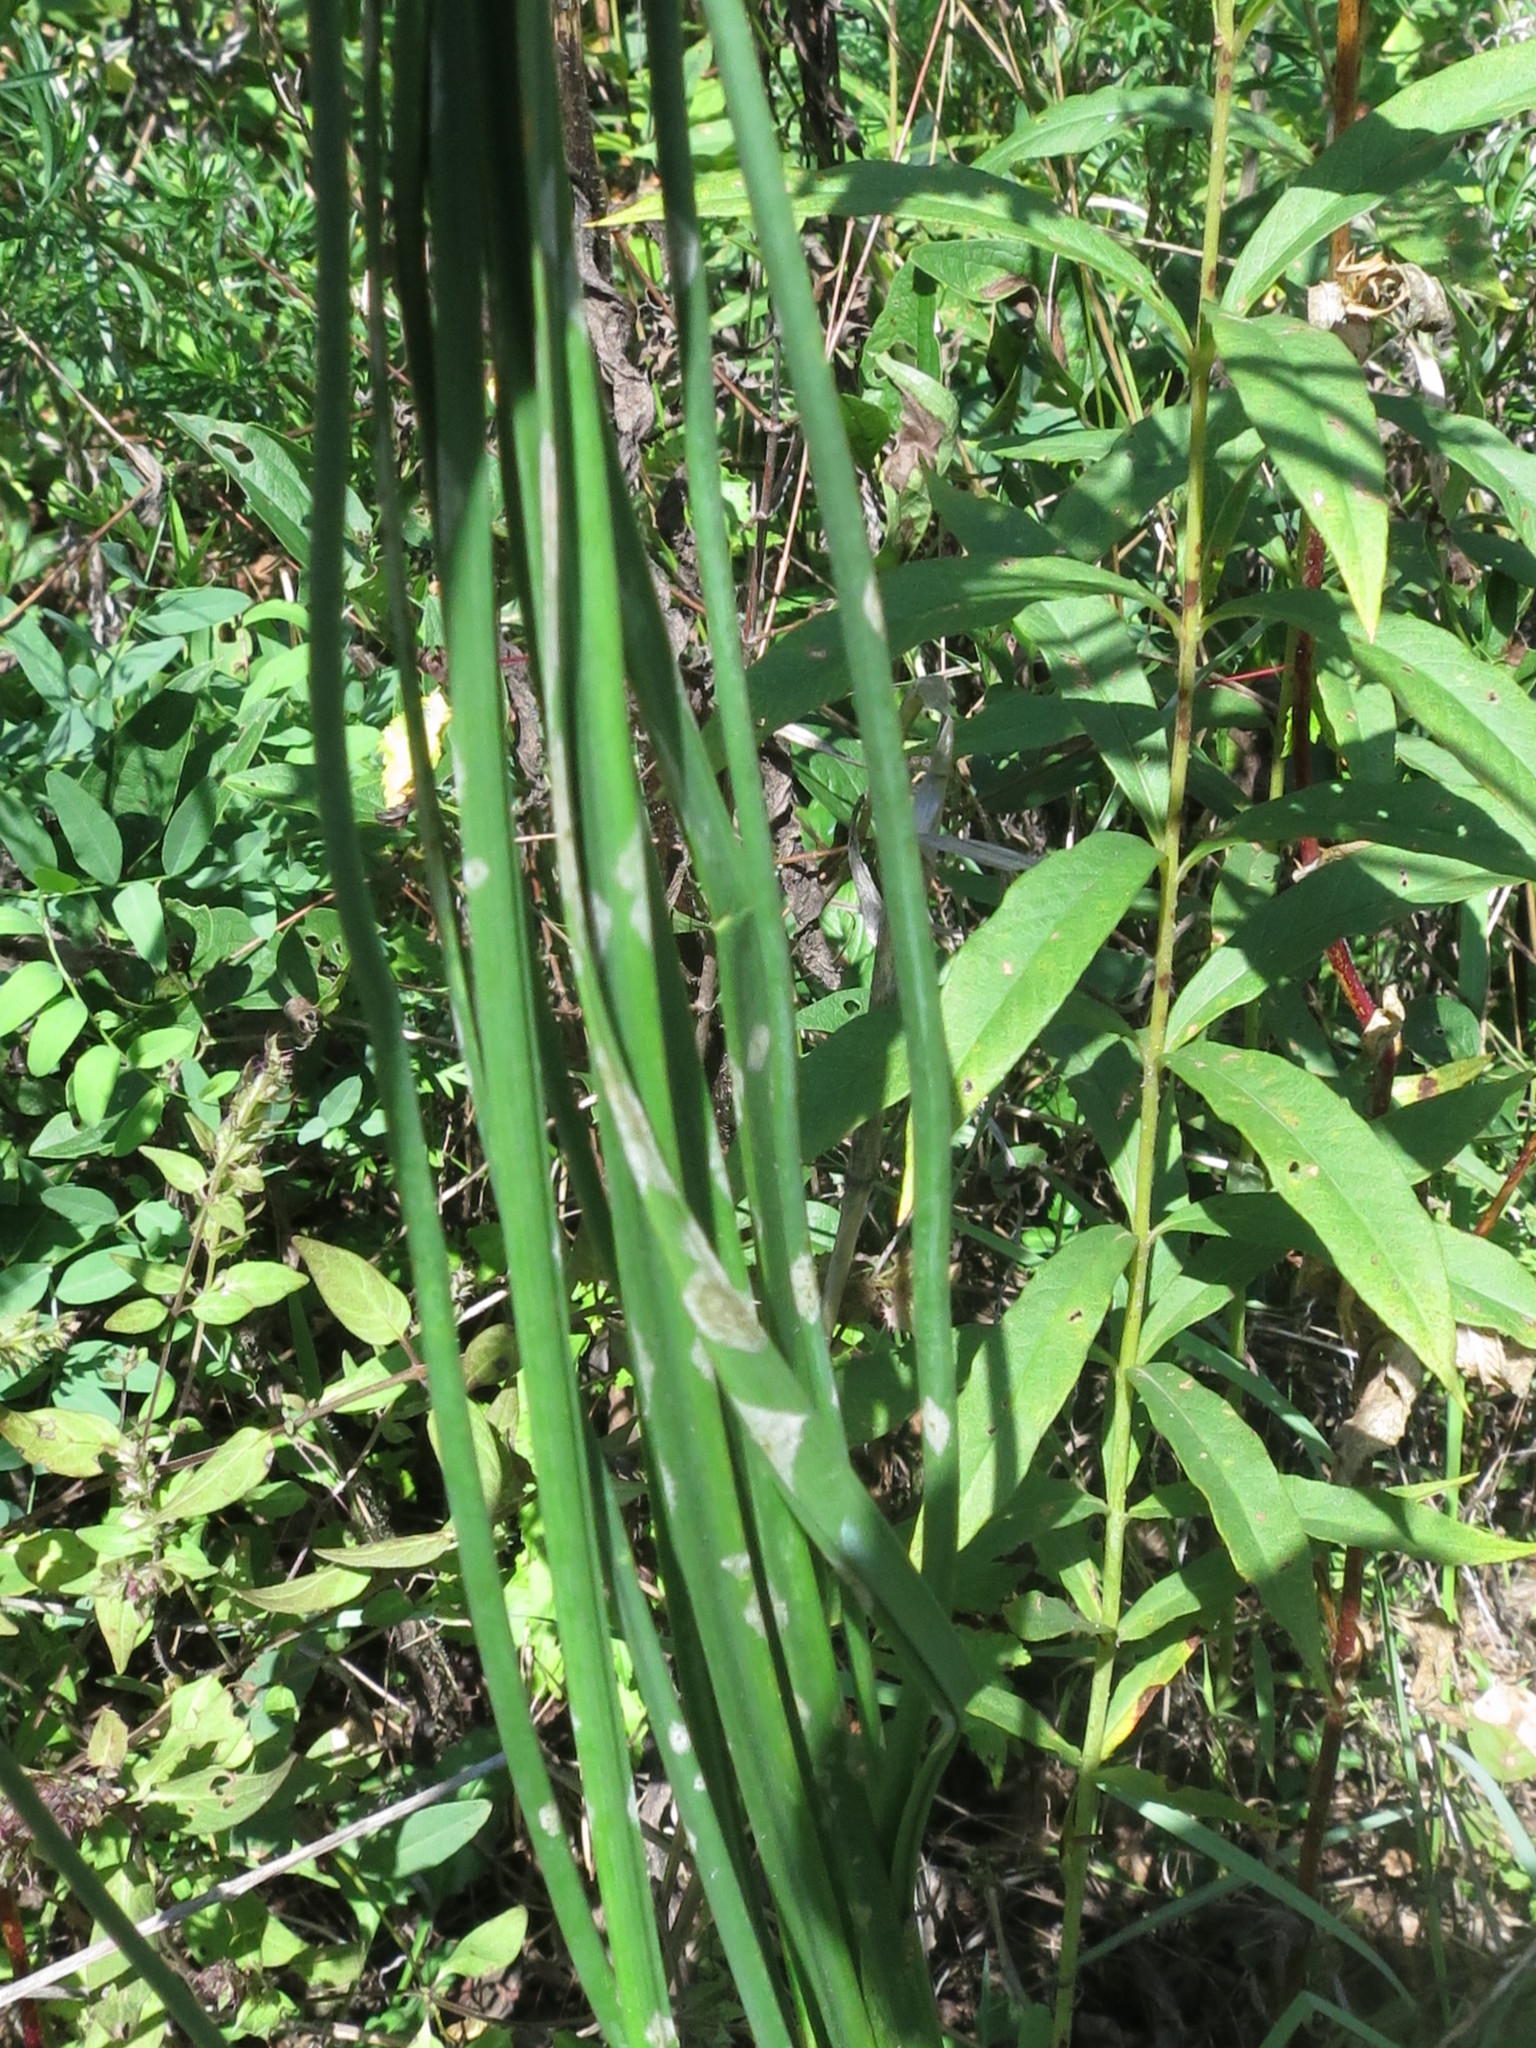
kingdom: Plantae
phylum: Tracheophyta
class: Liliopsida
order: Asparagales
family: Amaryllidaceae
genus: Allium
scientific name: Allium sacculiferum
